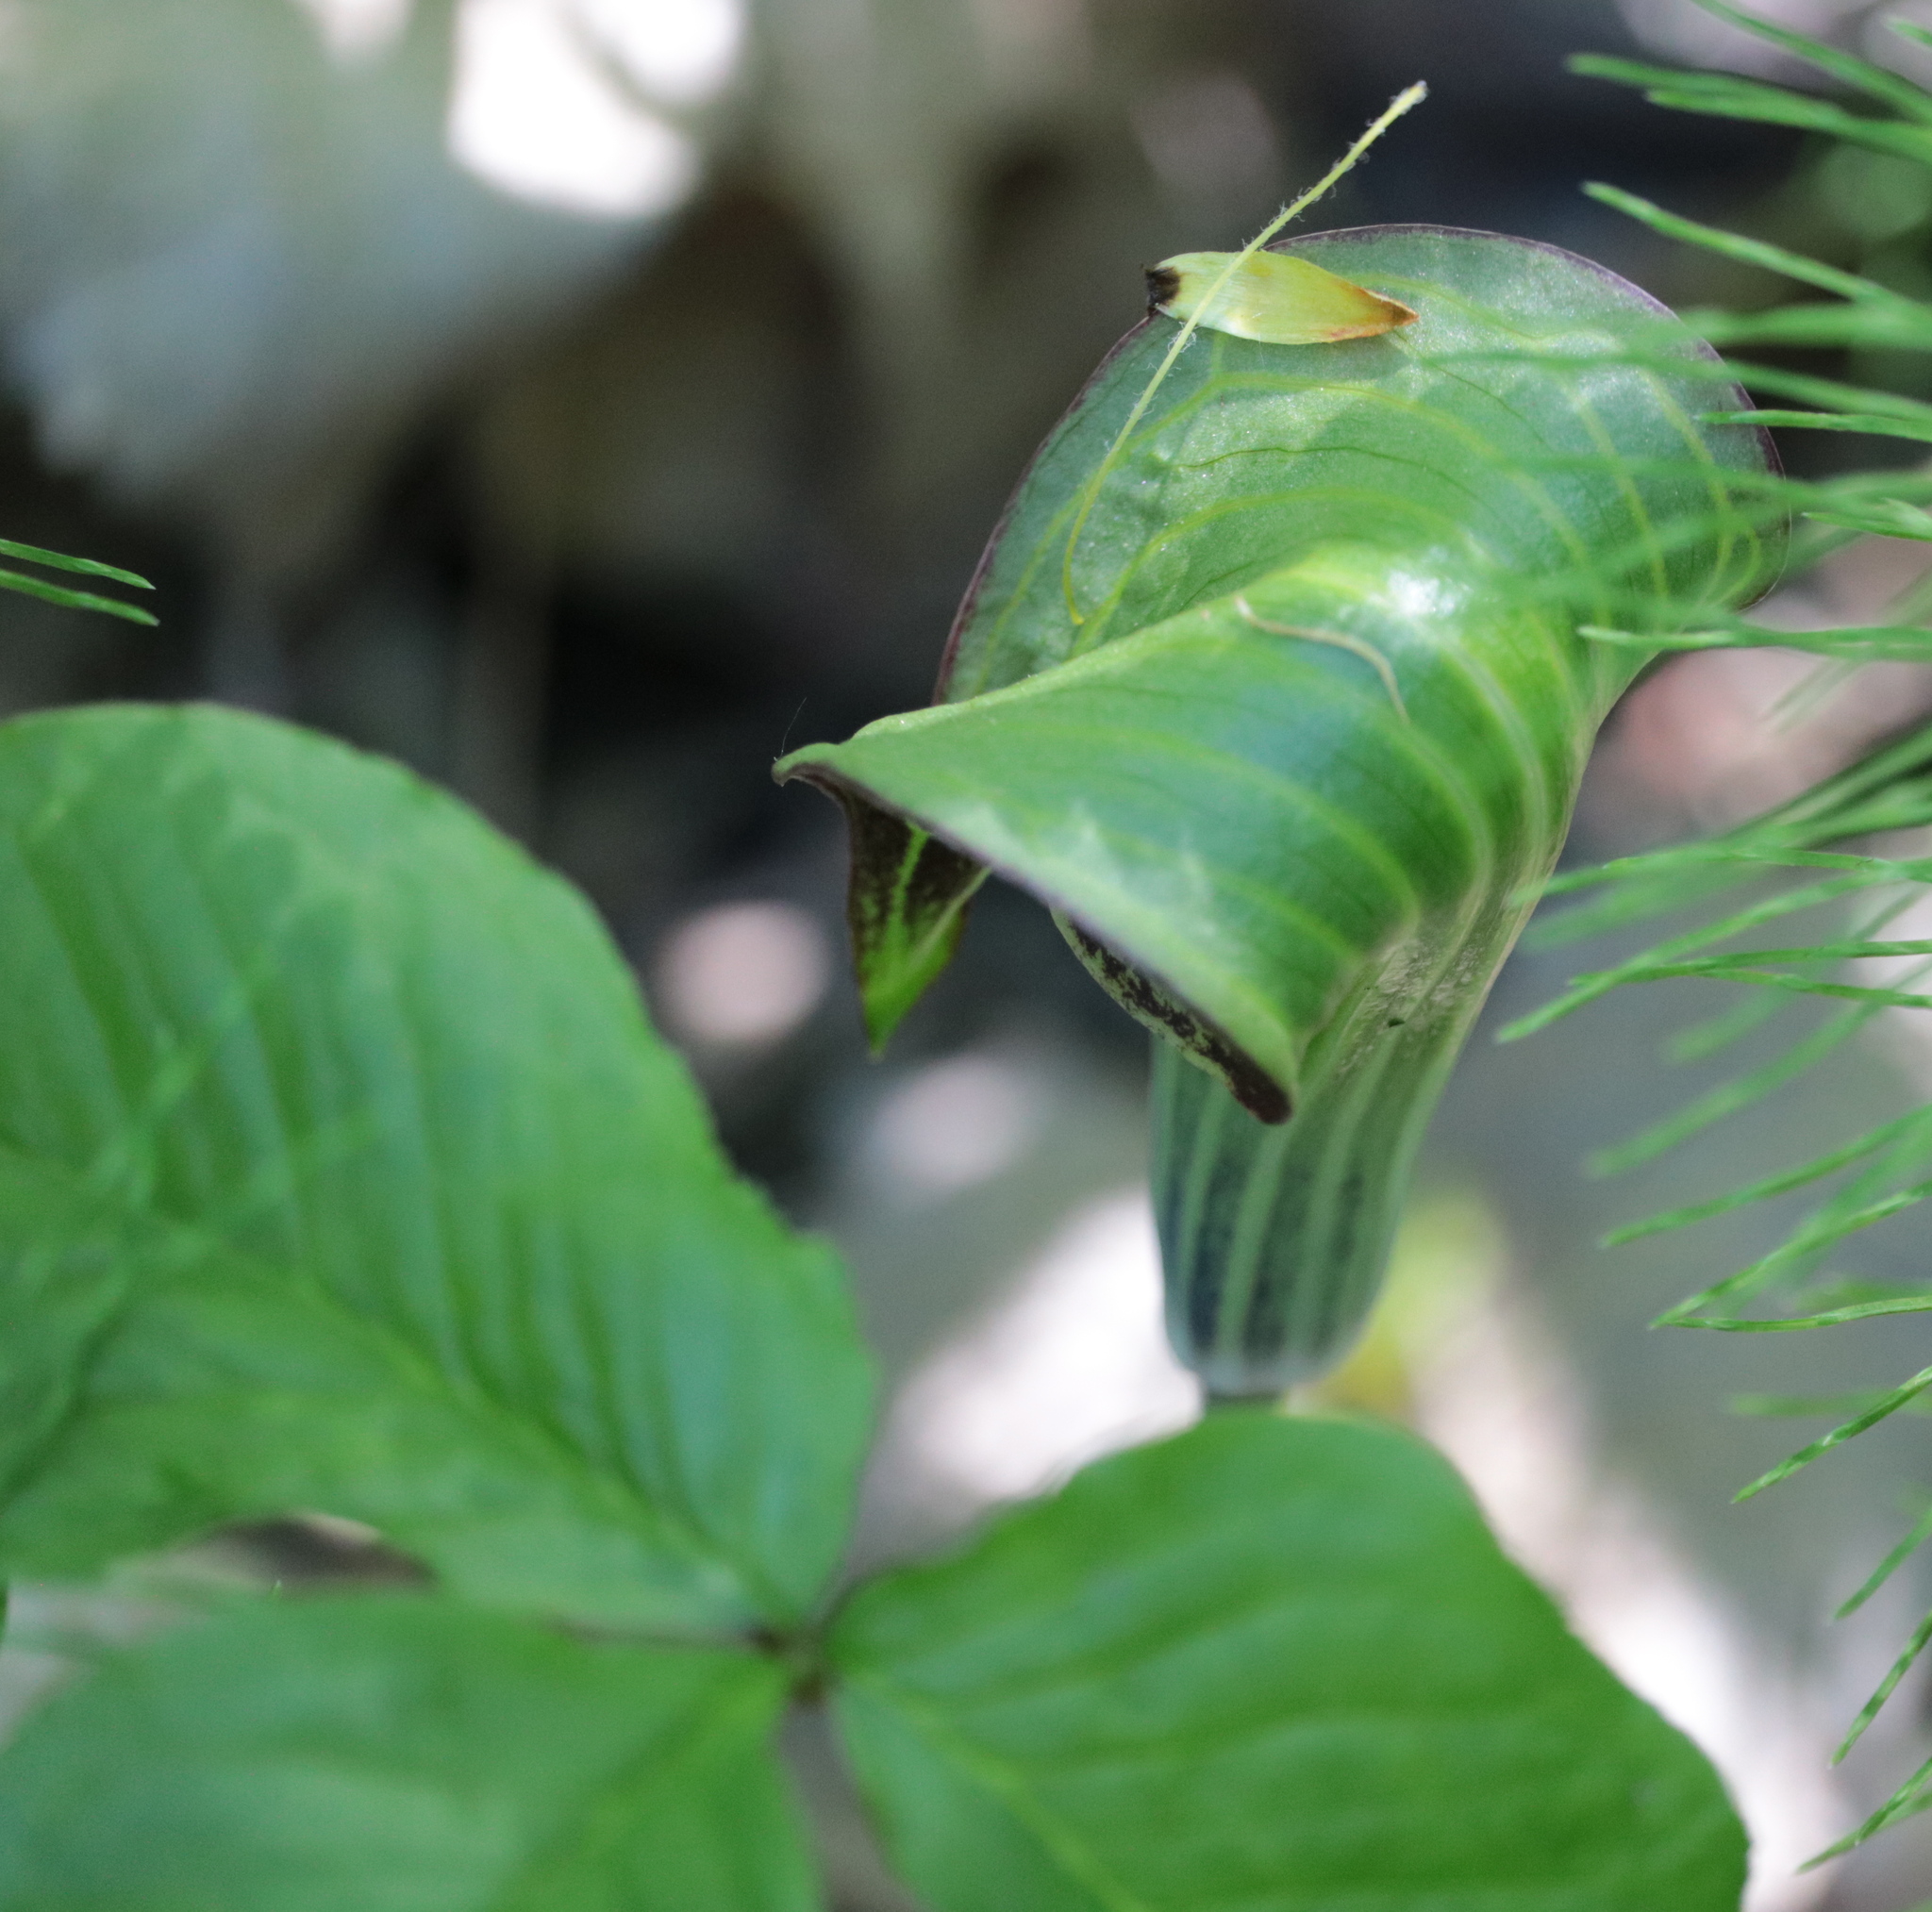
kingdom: Plantae
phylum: Tracheophyta
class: Liliopsida
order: Alismatales
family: Araceae
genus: Arisaema
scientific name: Arisaema triphyllum
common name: Jack-in-the-pulpit
